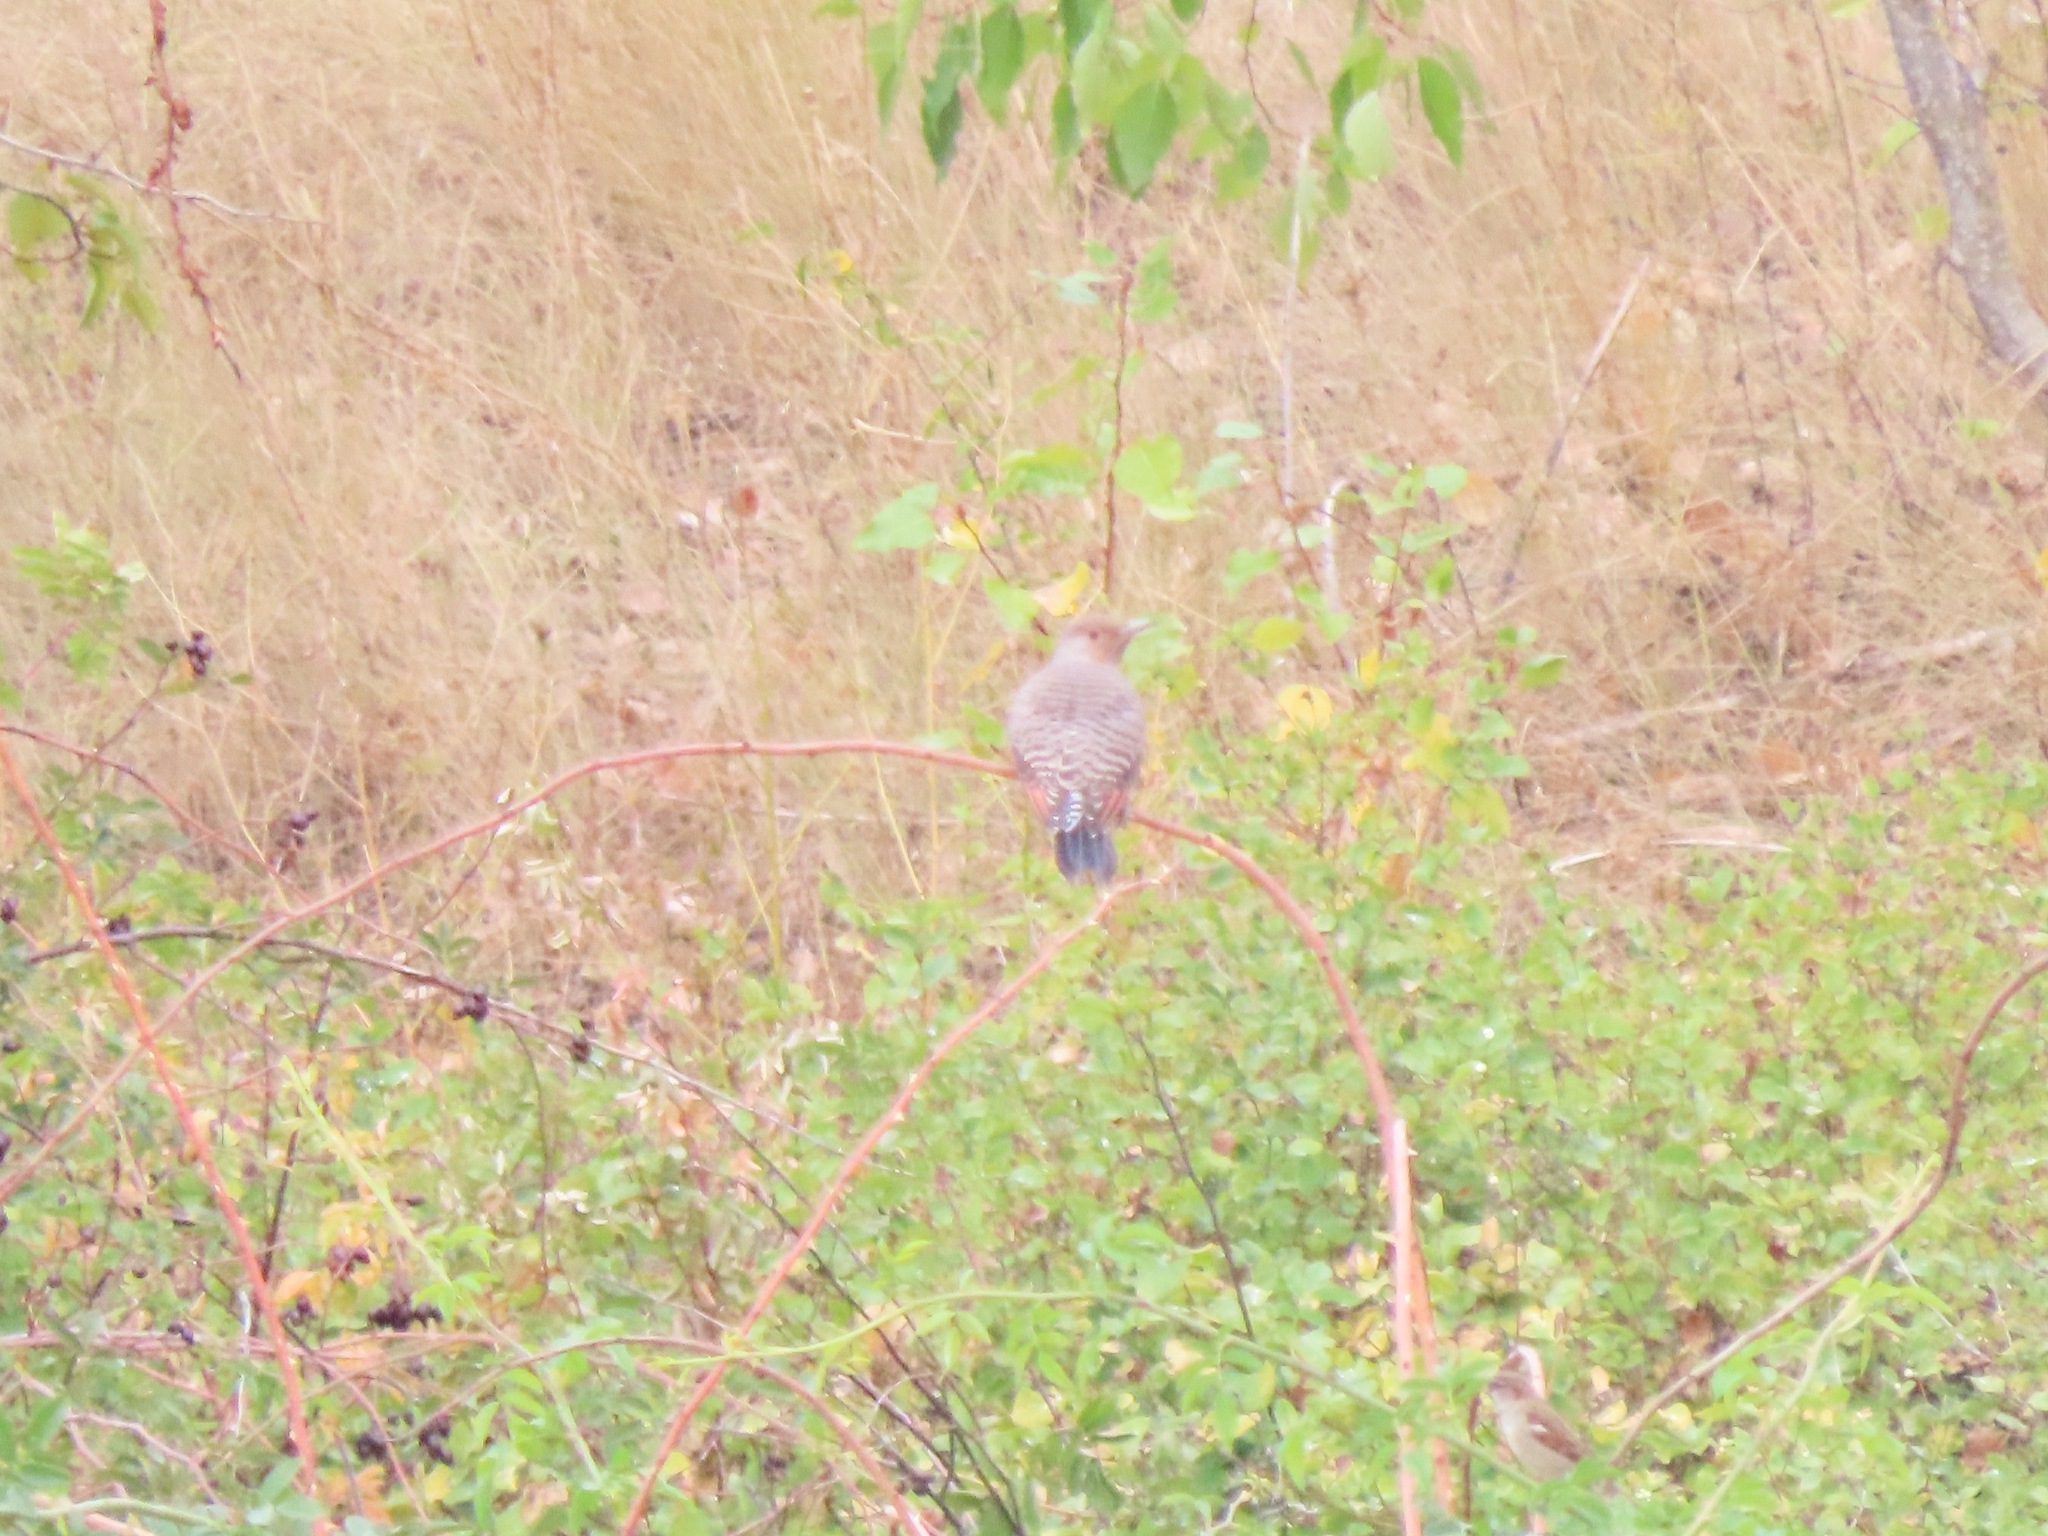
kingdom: Animalia
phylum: Chordata
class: Aves
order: Piciformes
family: Picidae
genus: Colaptes
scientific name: Colaptes auratus
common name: Northern flicker
